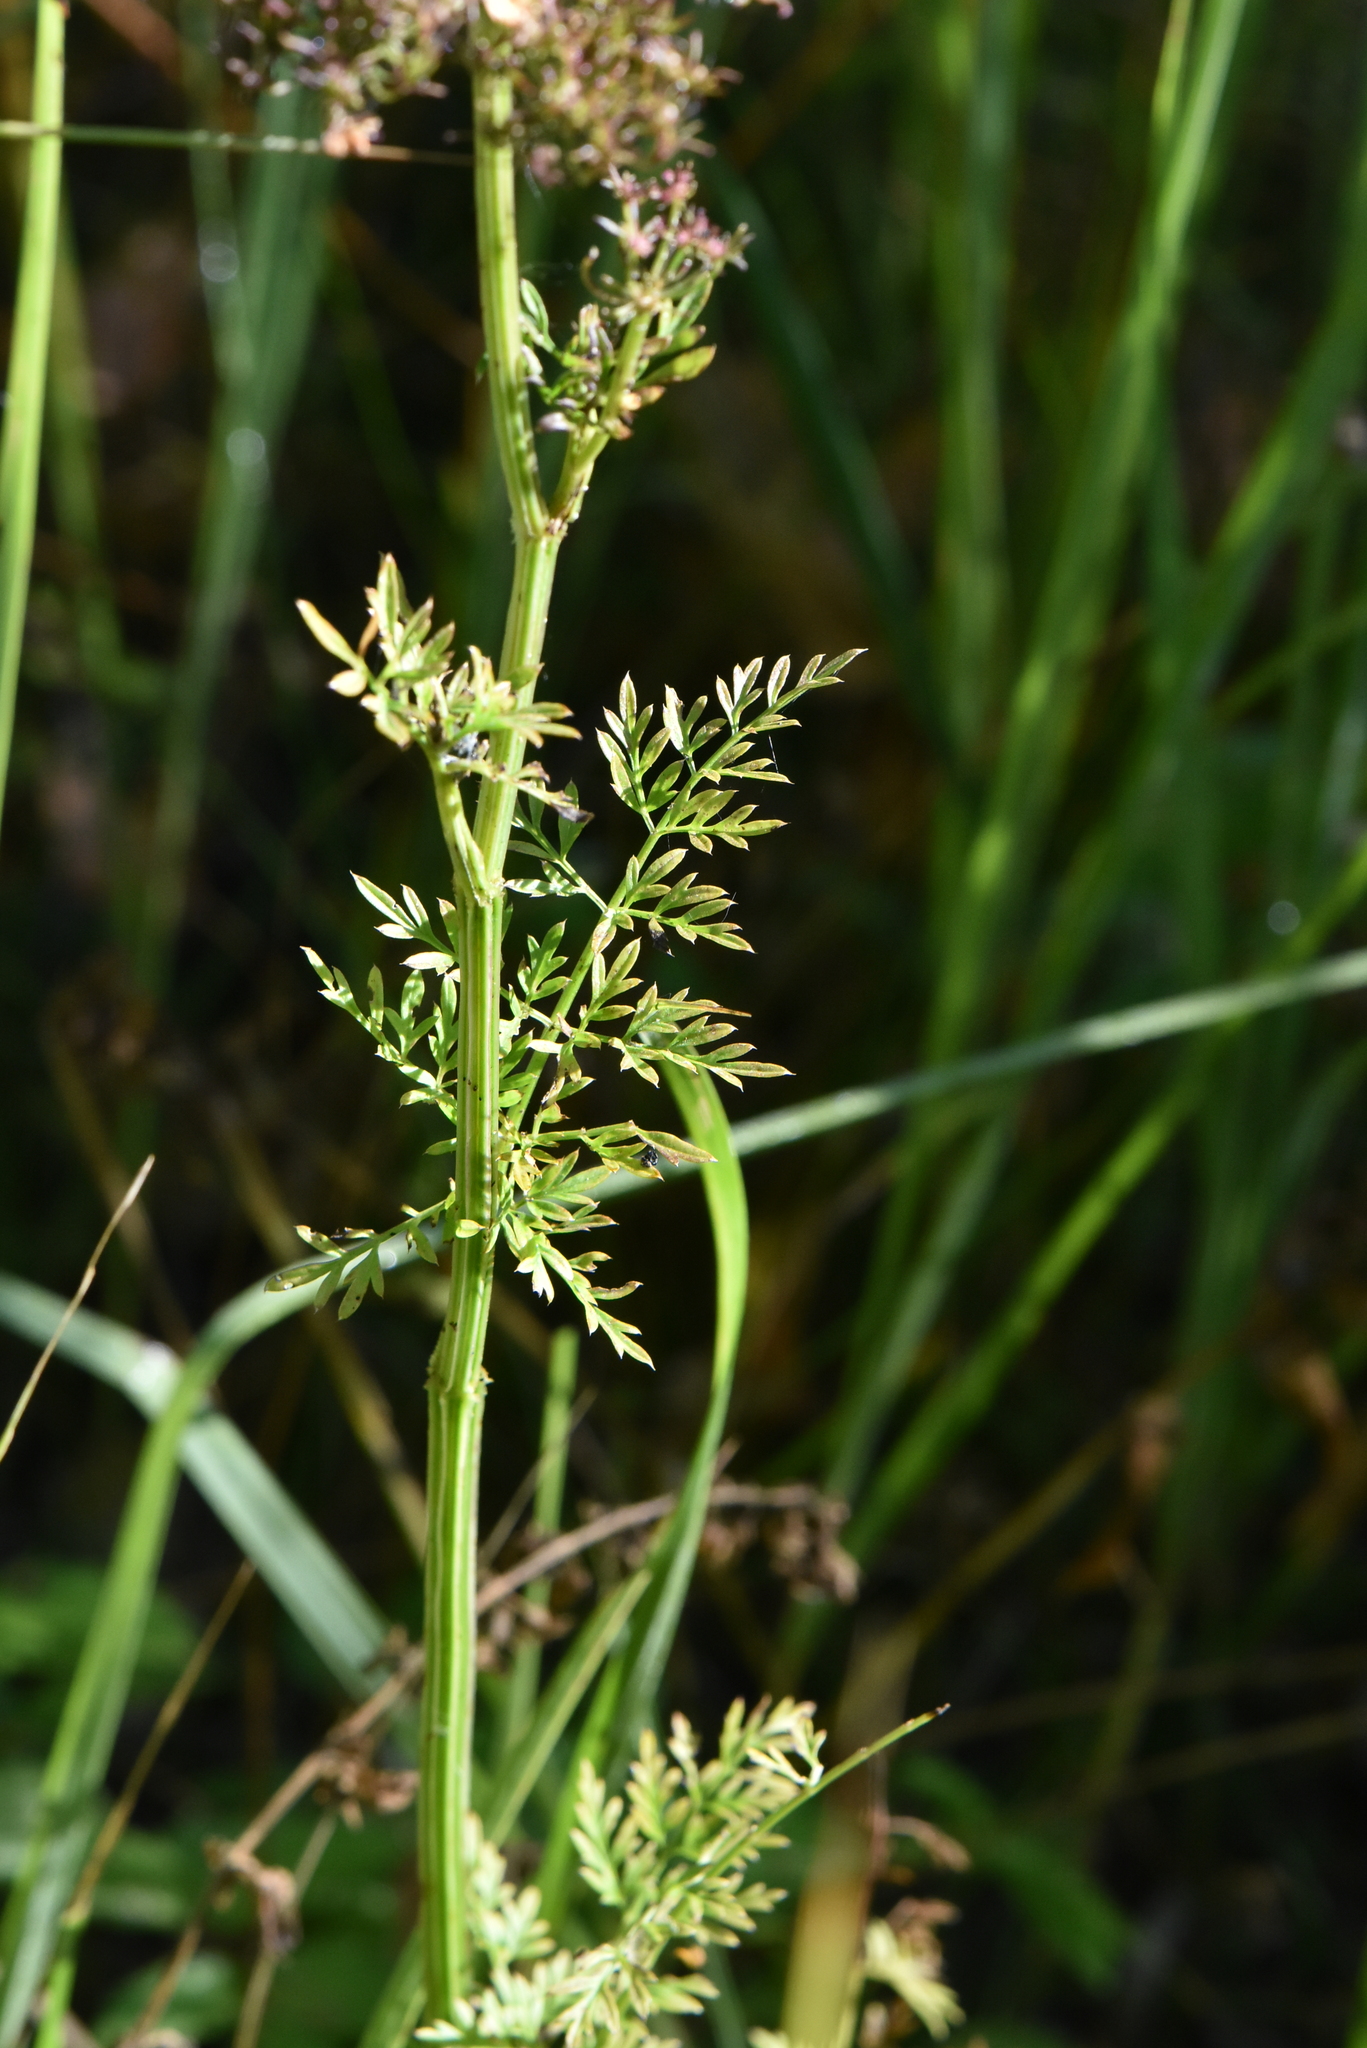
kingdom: Plantae
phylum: Tracheophyta
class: Magnoliopsida
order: Apiales
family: Apiaceae
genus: Selinum
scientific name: Selinum carvifolia
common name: Cambridge milk-parsley
